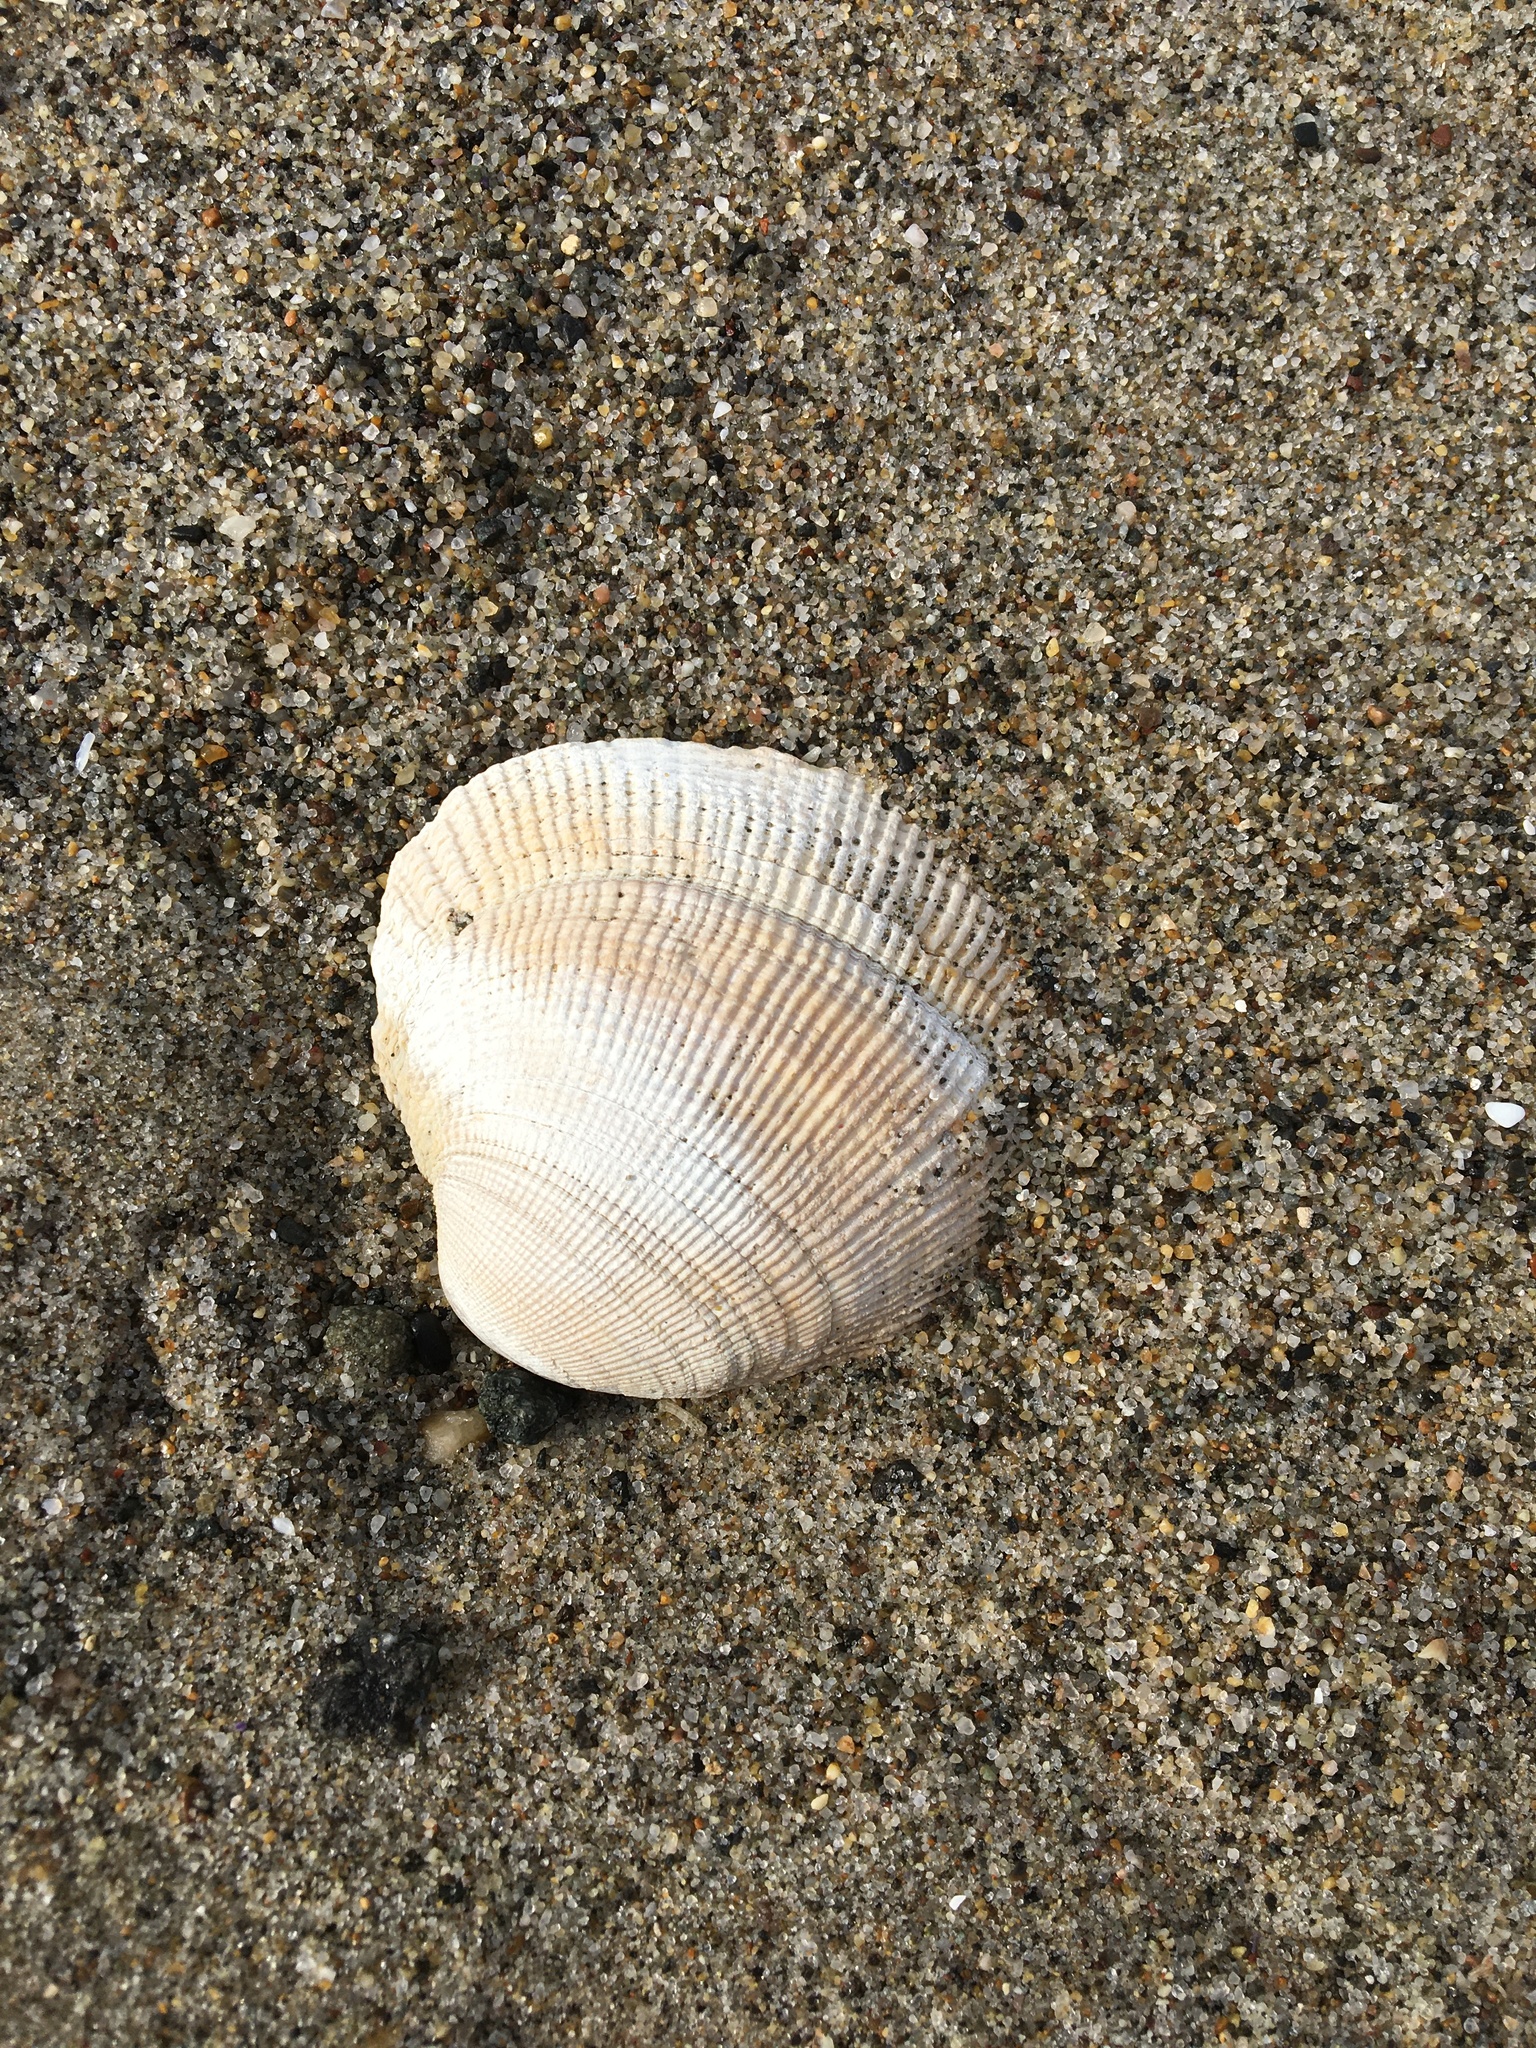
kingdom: Animalia
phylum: Mollusca
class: Bivalvia
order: Venerida
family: Veneridae
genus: Leukoma
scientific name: Leukoma staminea
